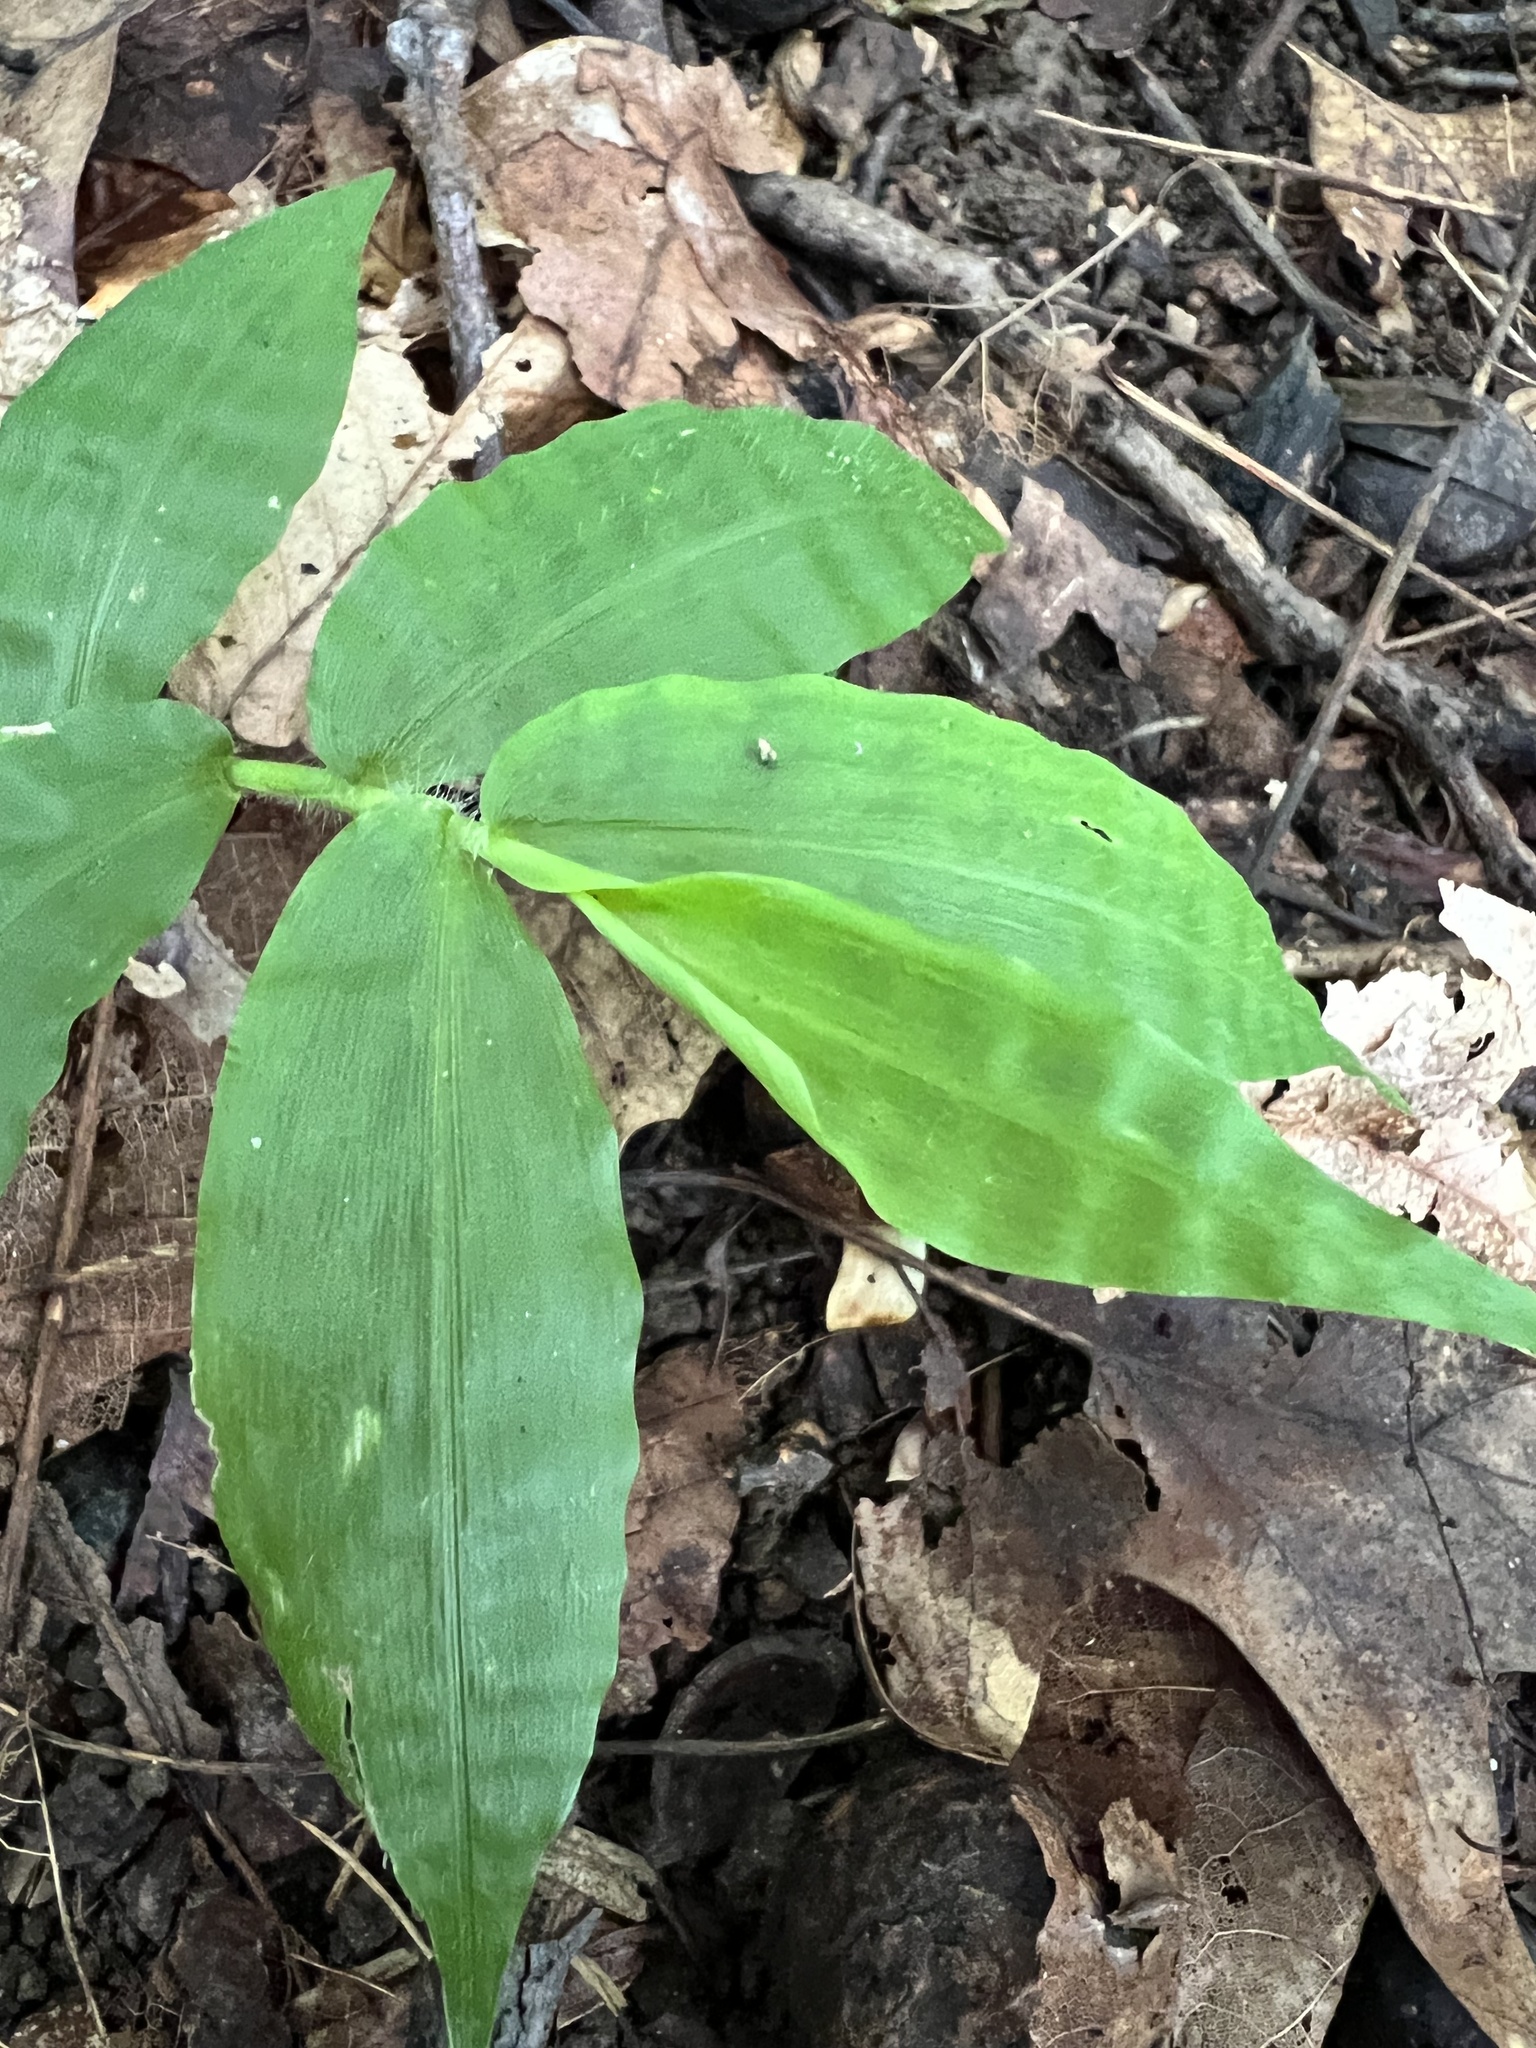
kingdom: Plantae
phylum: Tracheophyta
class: Liliopsida
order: Poales
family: Poaceae
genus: Oplismenus
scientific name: Oplismenus undulatifolius
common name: Wavyleaf basketgrass
